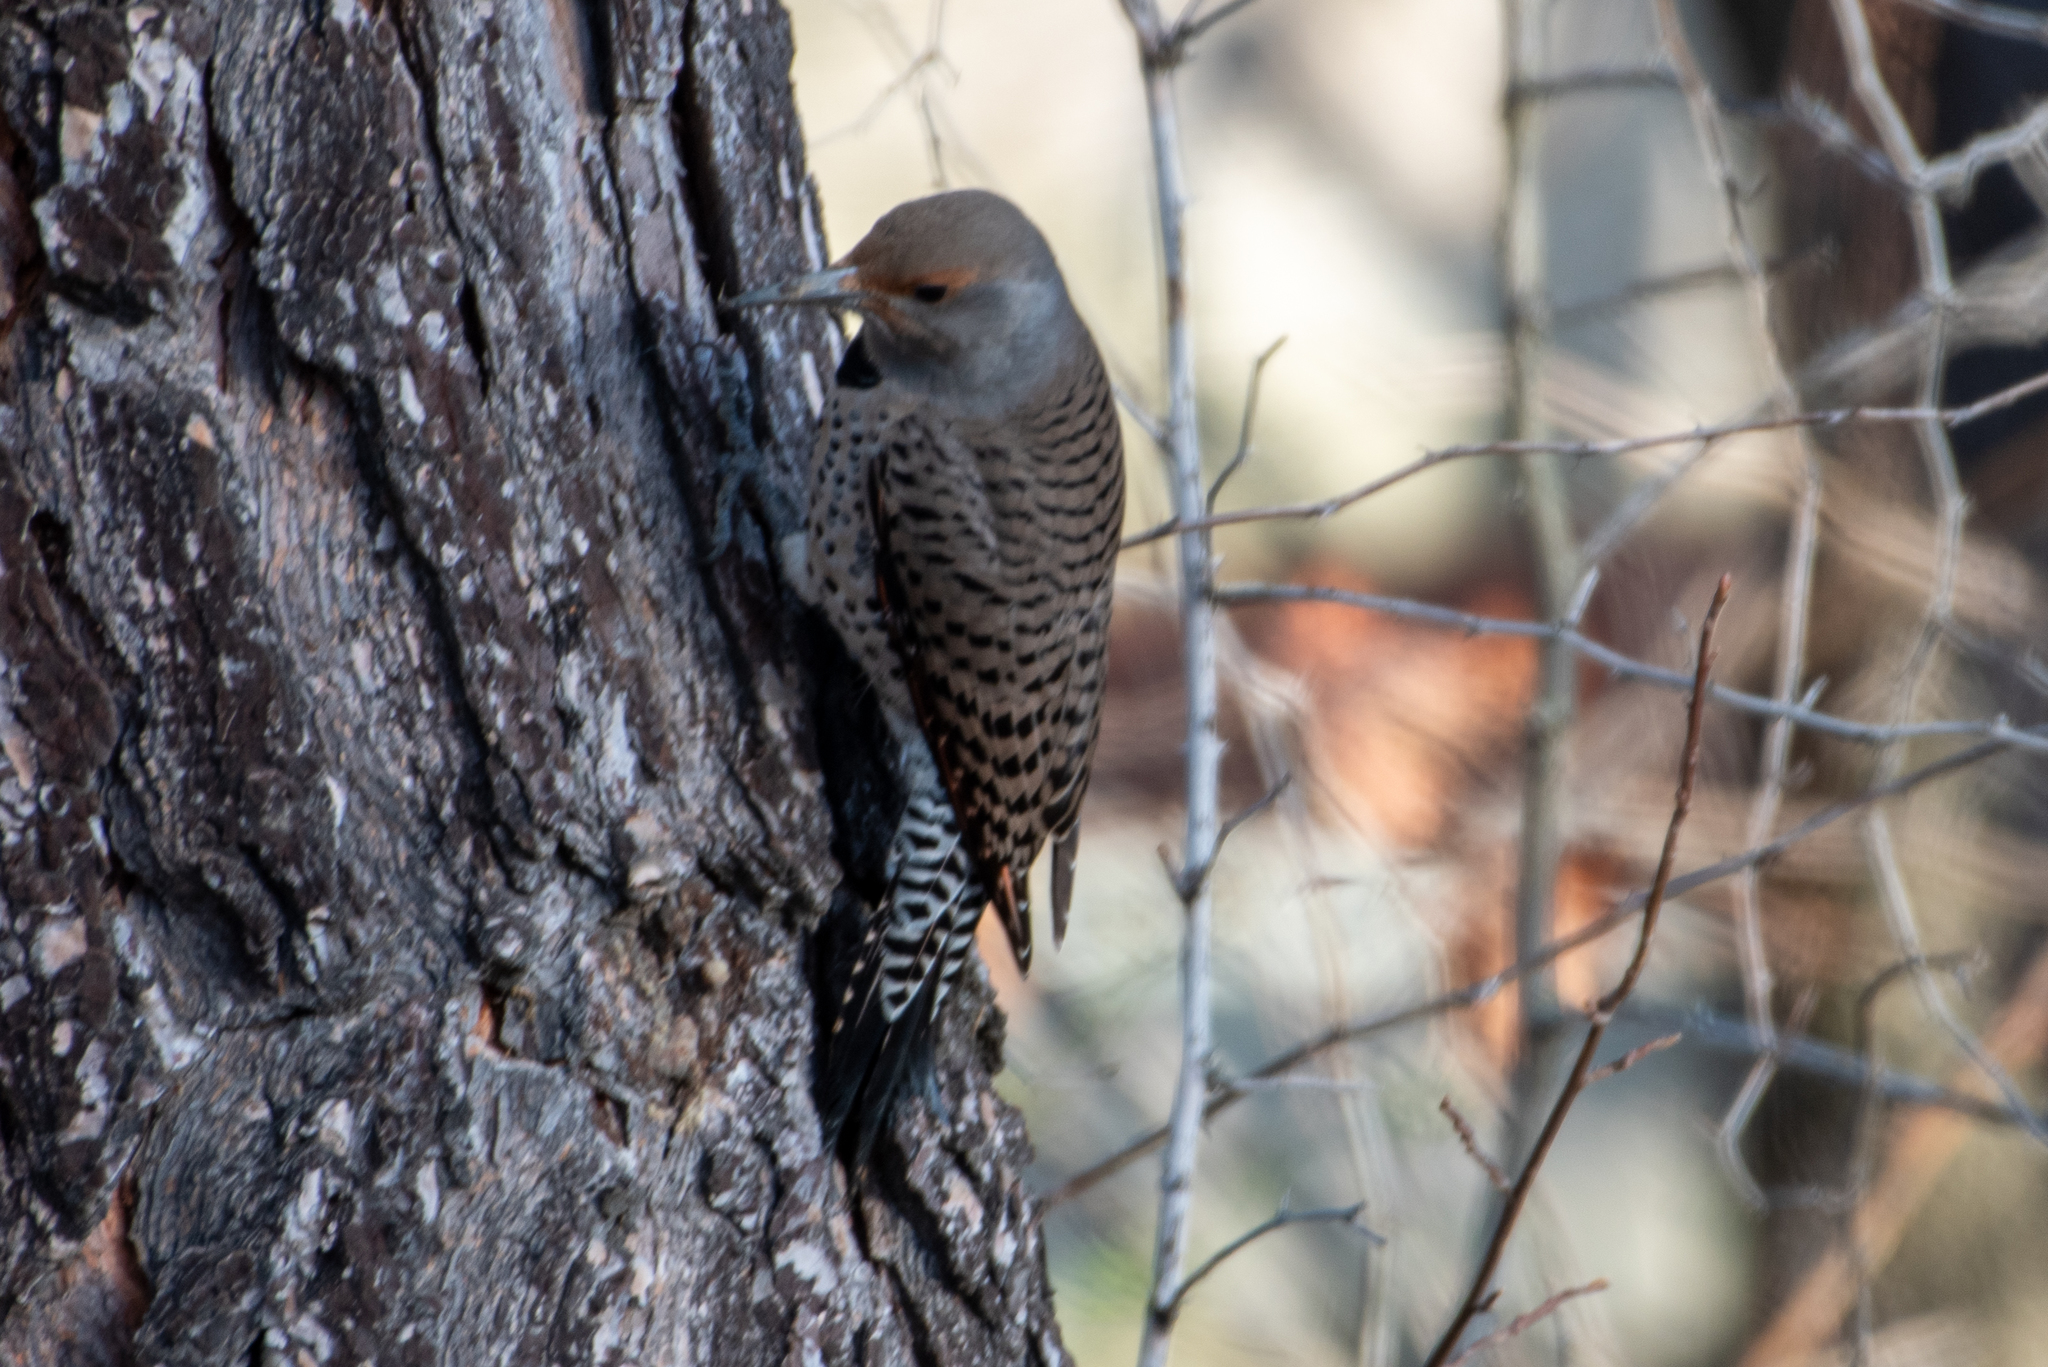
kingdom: Animalia
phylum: Chordata
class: Aves
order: Piciformes
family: Picidae
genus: Colaptes
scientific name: Colaptes auratus
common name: Northern flicker
